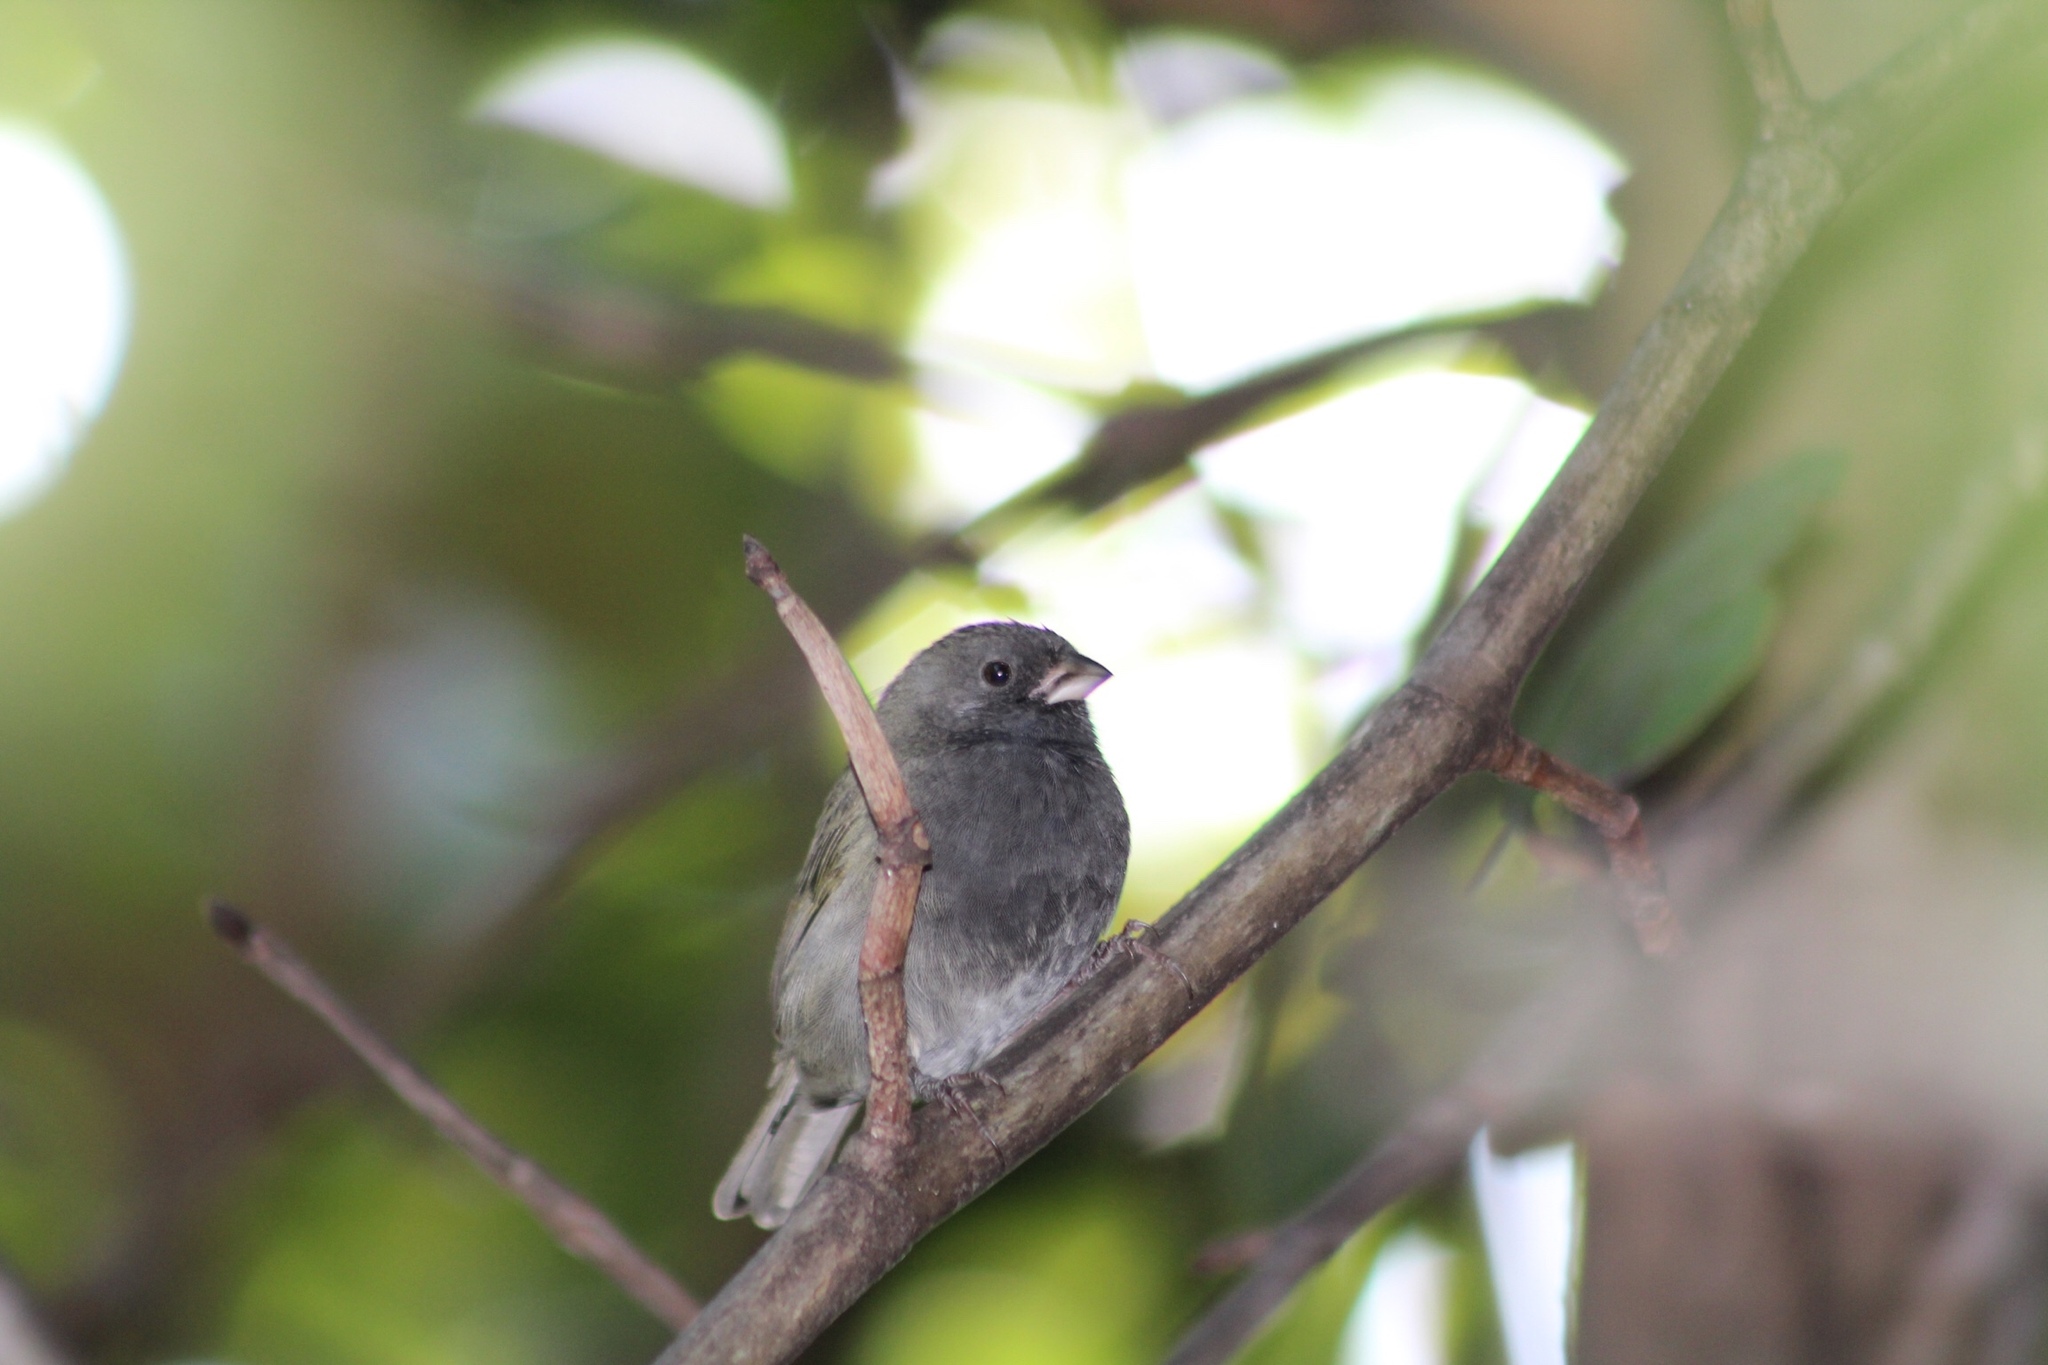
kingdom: Animalia
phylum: Chordata
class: Aves
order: Passeriformes
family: Thraupidae
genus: Melanospiza
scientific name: Melanospiza bicolor
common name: Black-faced grassquit
